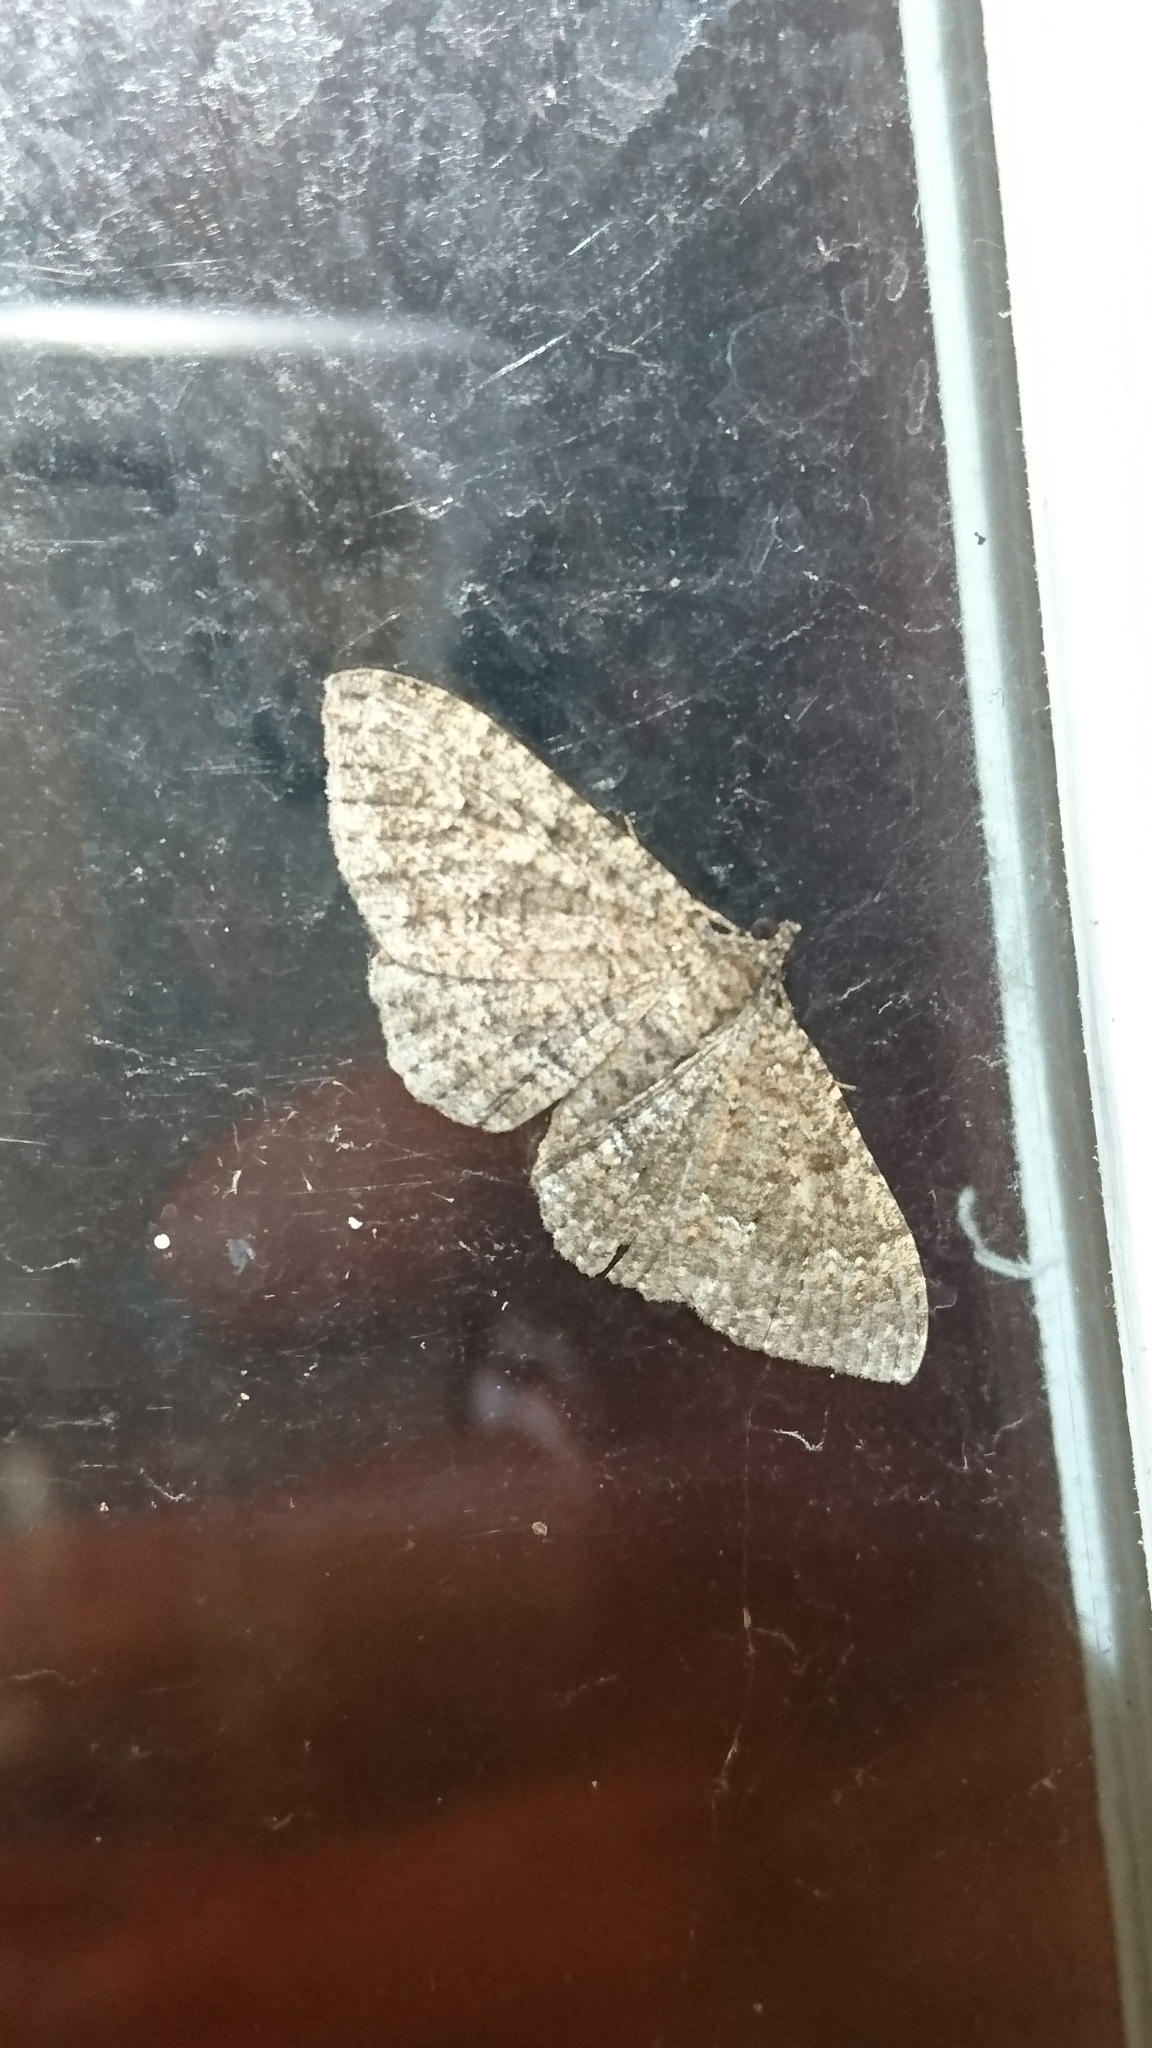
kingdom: Animalia
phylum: Arthropoda
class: Insecta
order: Lepidoptera
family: Geometridae
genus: Disclisioprocta
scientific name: Disclisioprocta stellata
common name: Somber carpet
